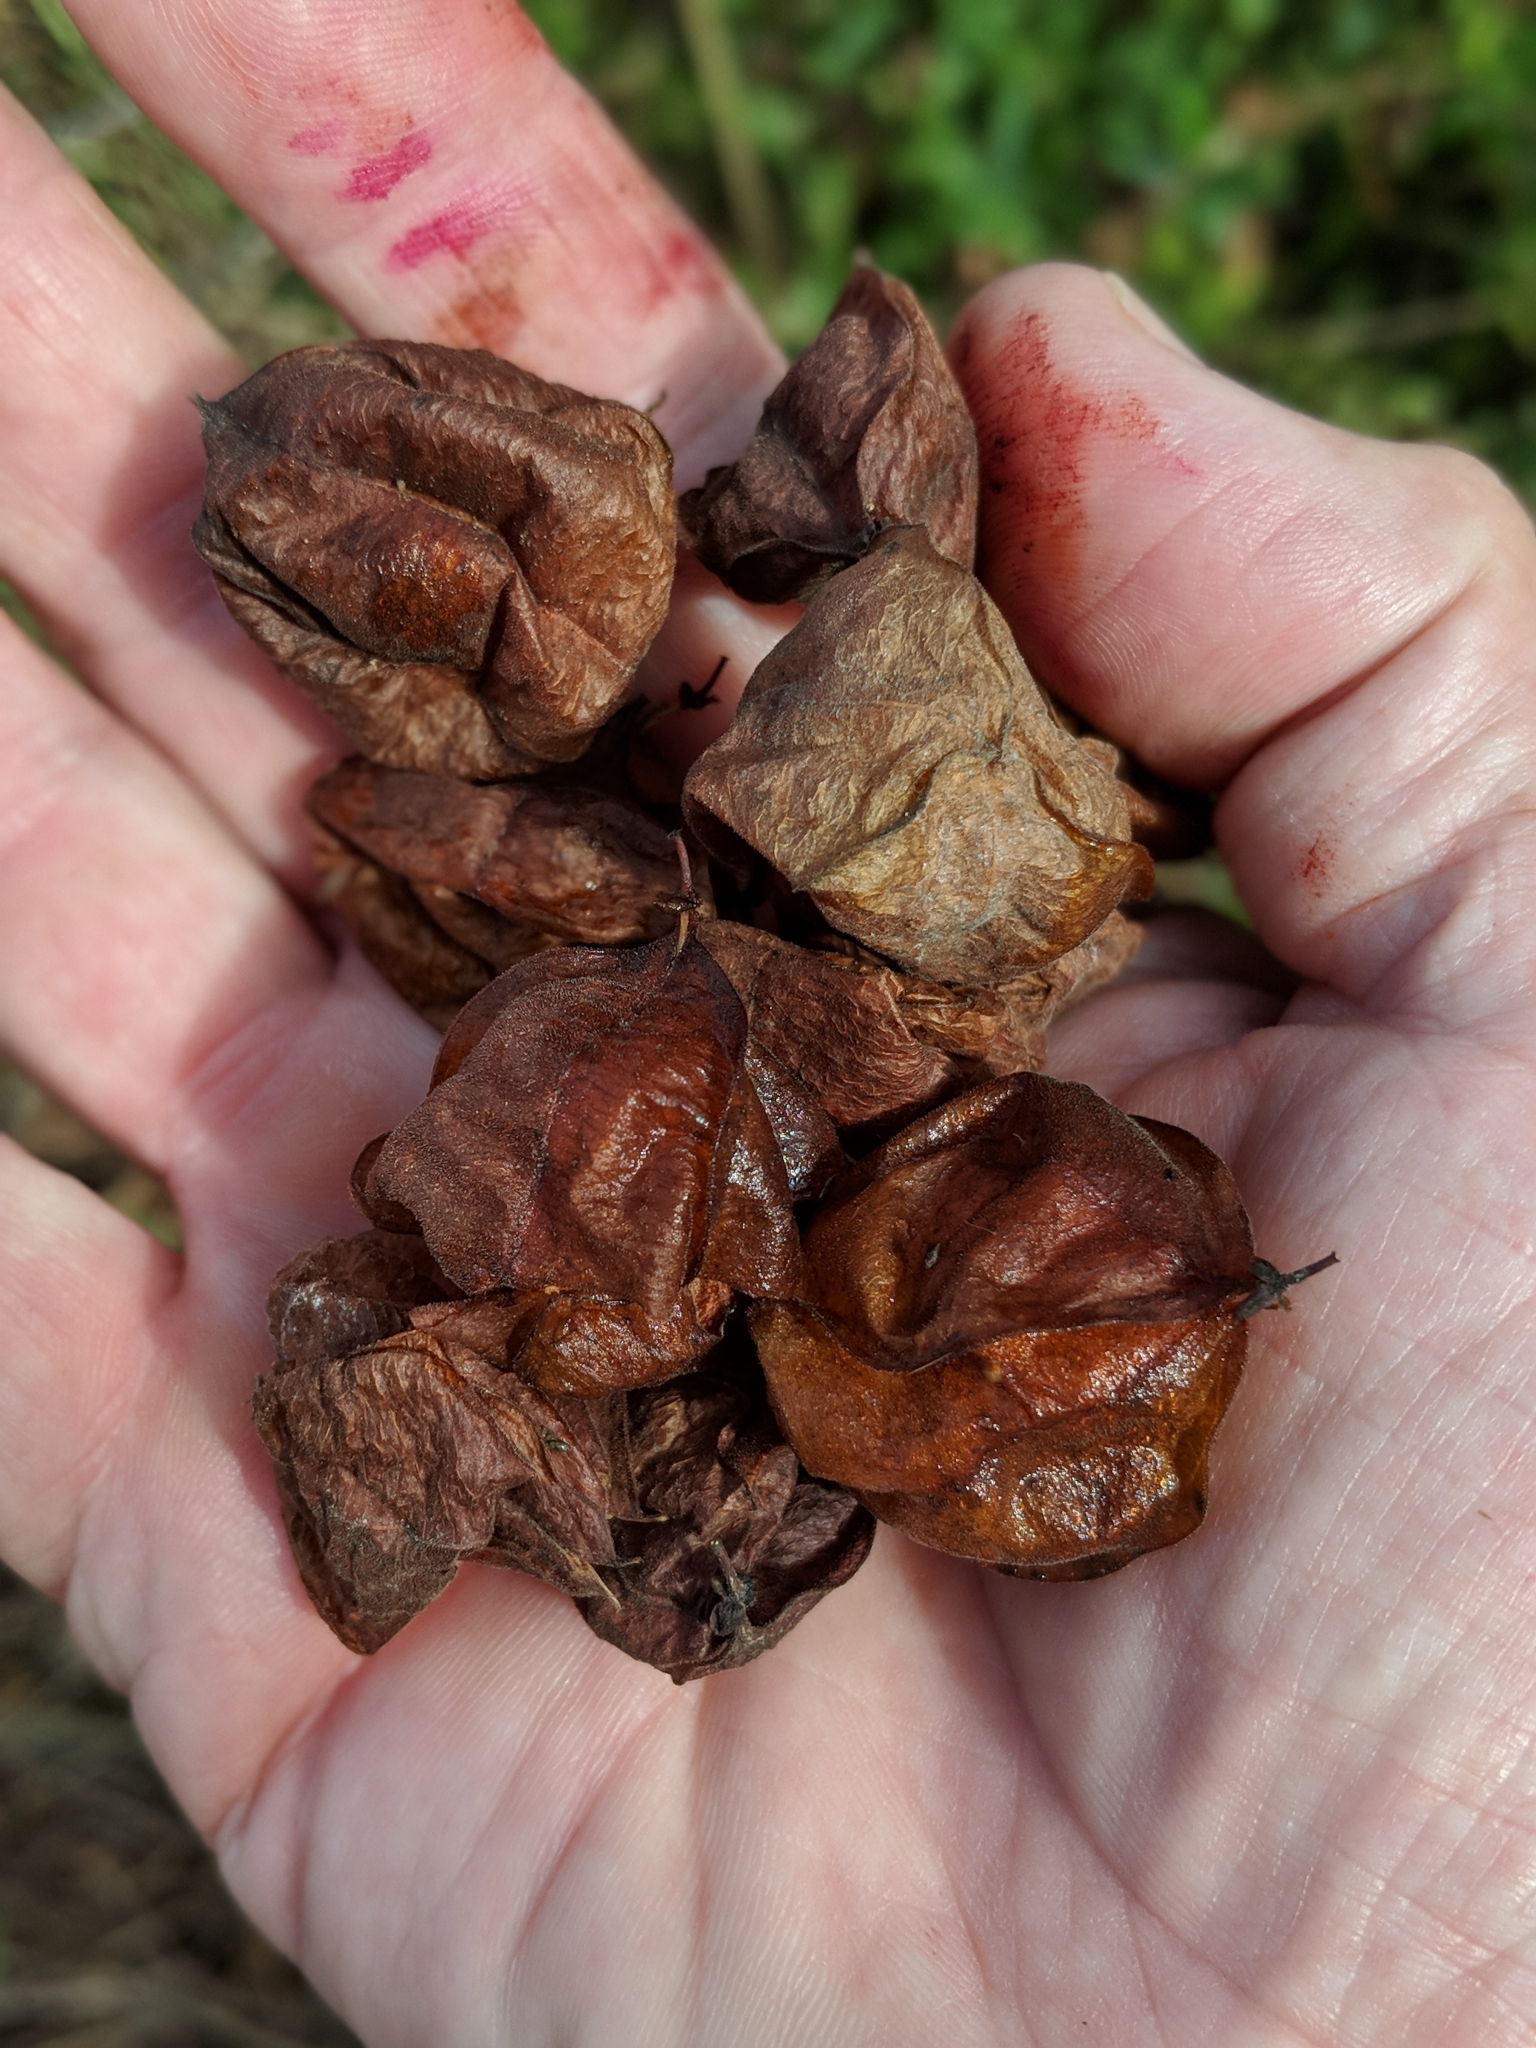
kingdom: Plantae
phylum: Tracheophyta
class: Magnoliopsida
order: Sapindales
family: Sapindaceae
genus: Cardiospermum
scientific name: Cardiospermum halicacabum
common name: Balloon vine
